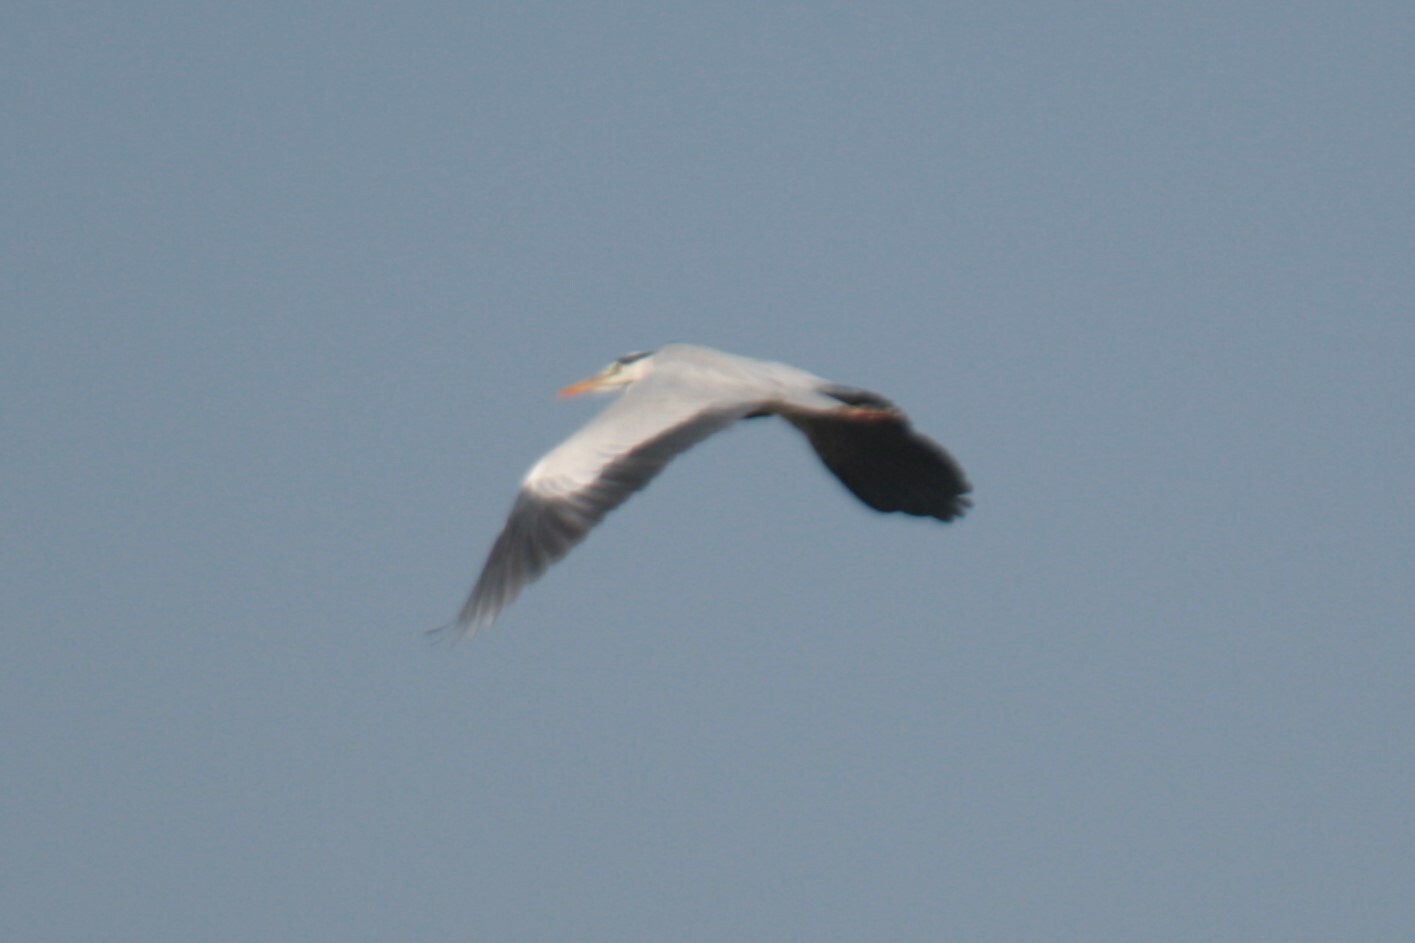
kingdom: Animalia
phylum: Chordata
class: Aves
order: Pelecaniformes
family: Ardeidae
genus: Ardea
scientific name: Ardea cinerea
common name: Grey heron
